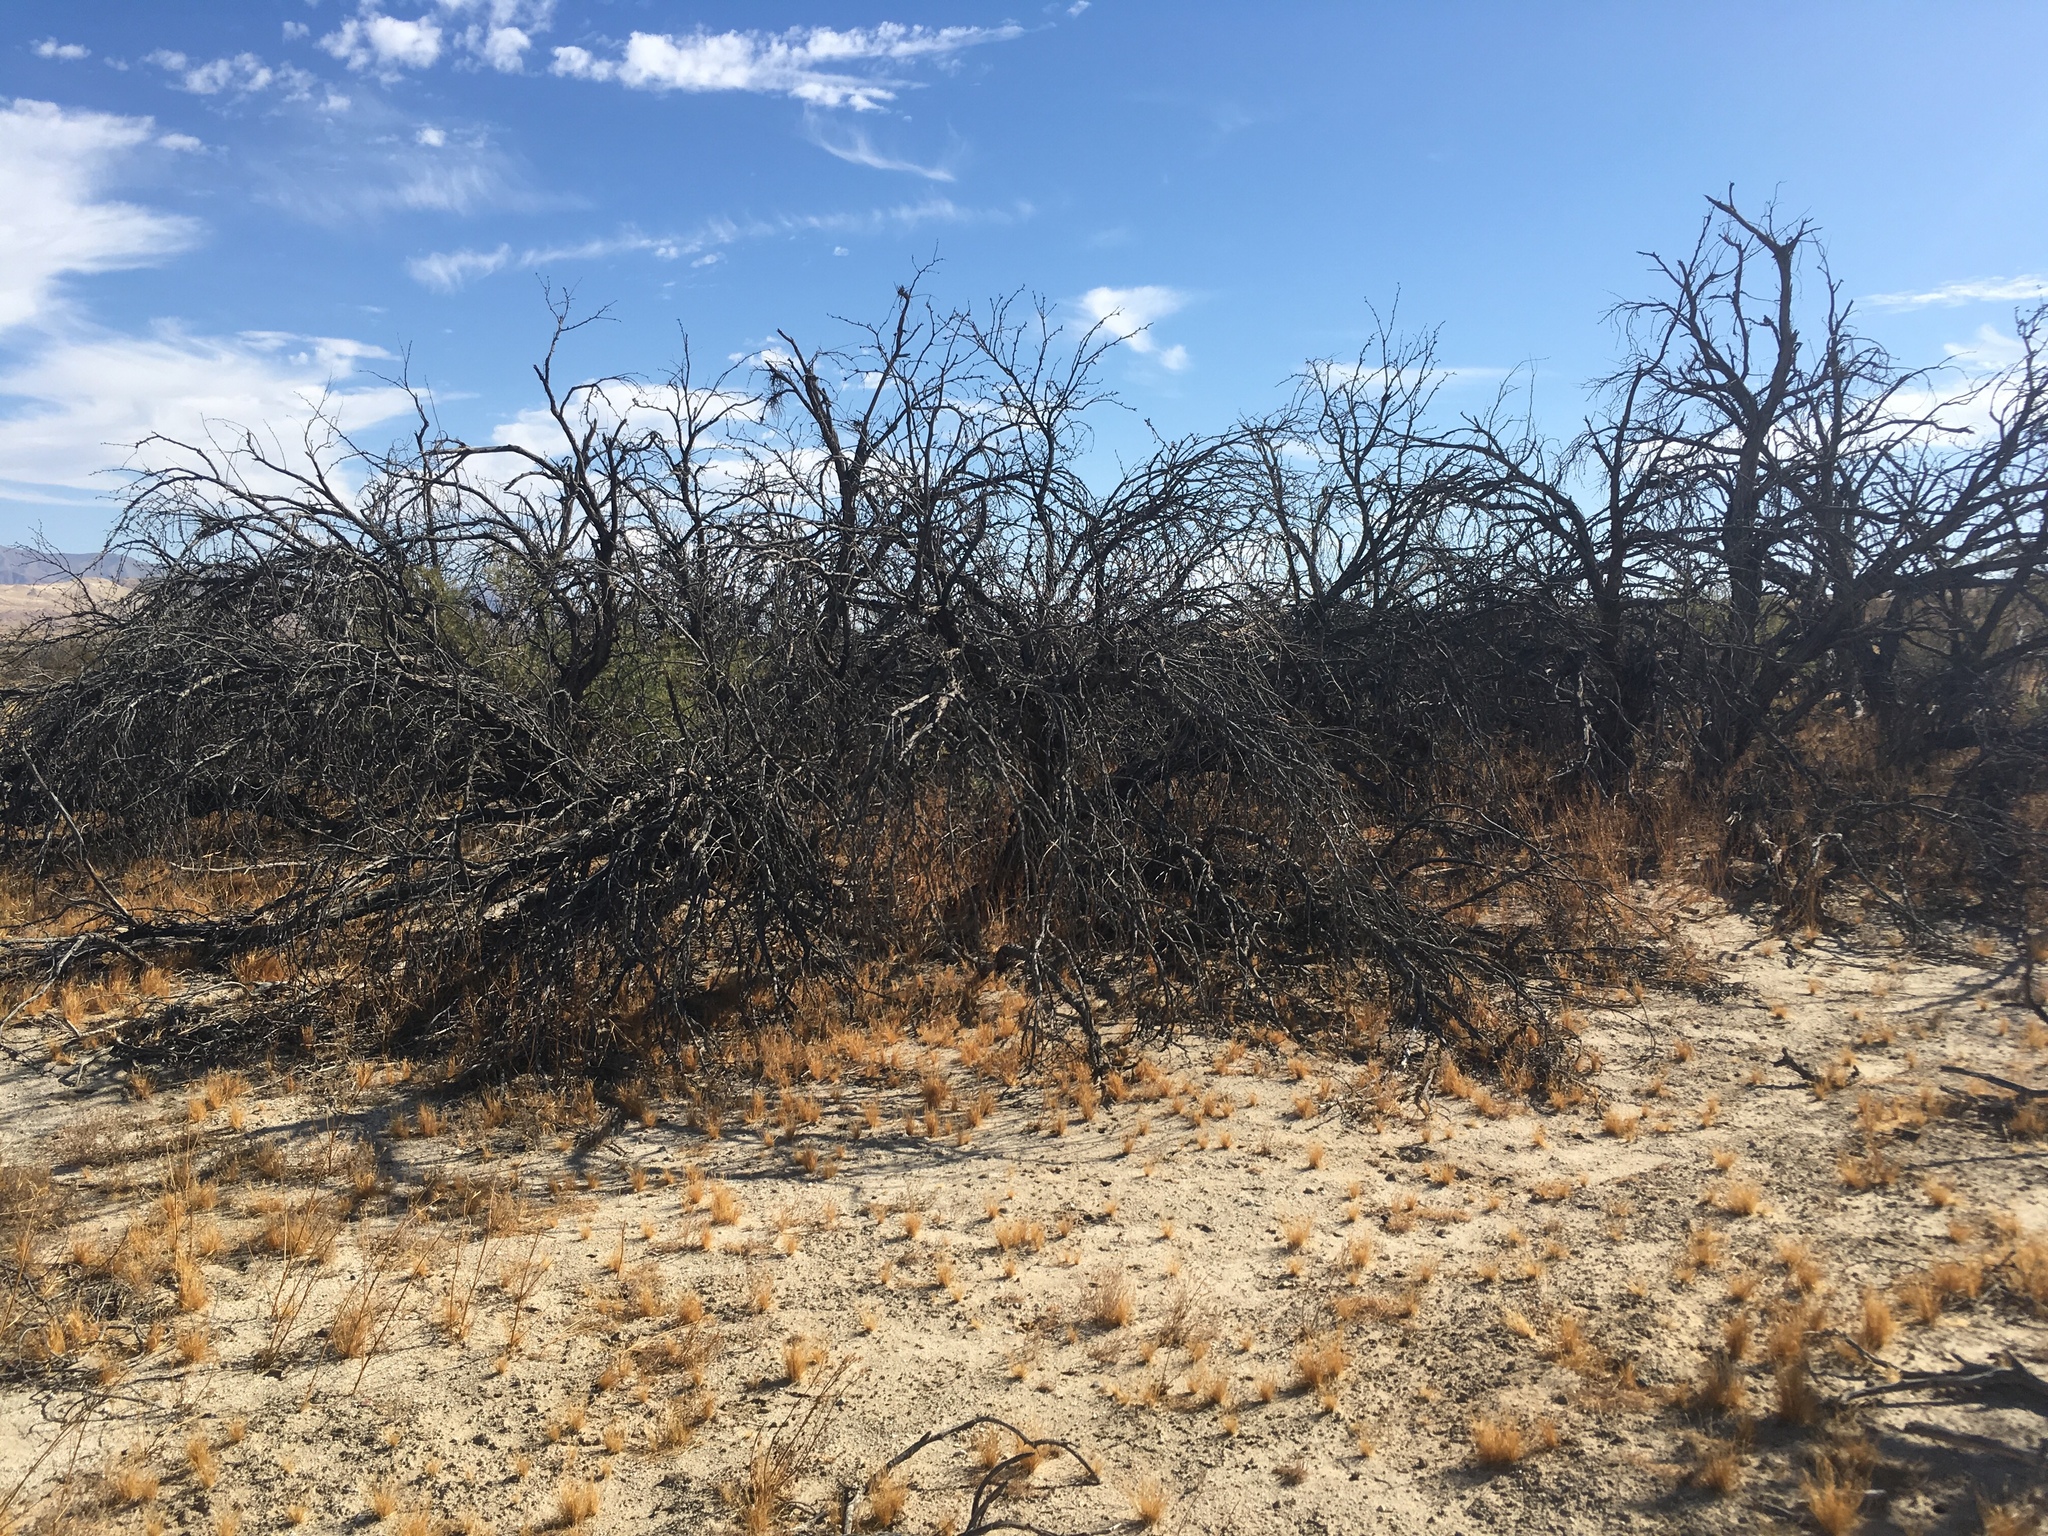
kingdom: Plantae
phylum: Tracheophyta
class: Magnoliopsida
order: Fabales
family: Fabaceae
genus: Prosopis
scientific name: Prosopis pubescens
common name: Screw-bean
